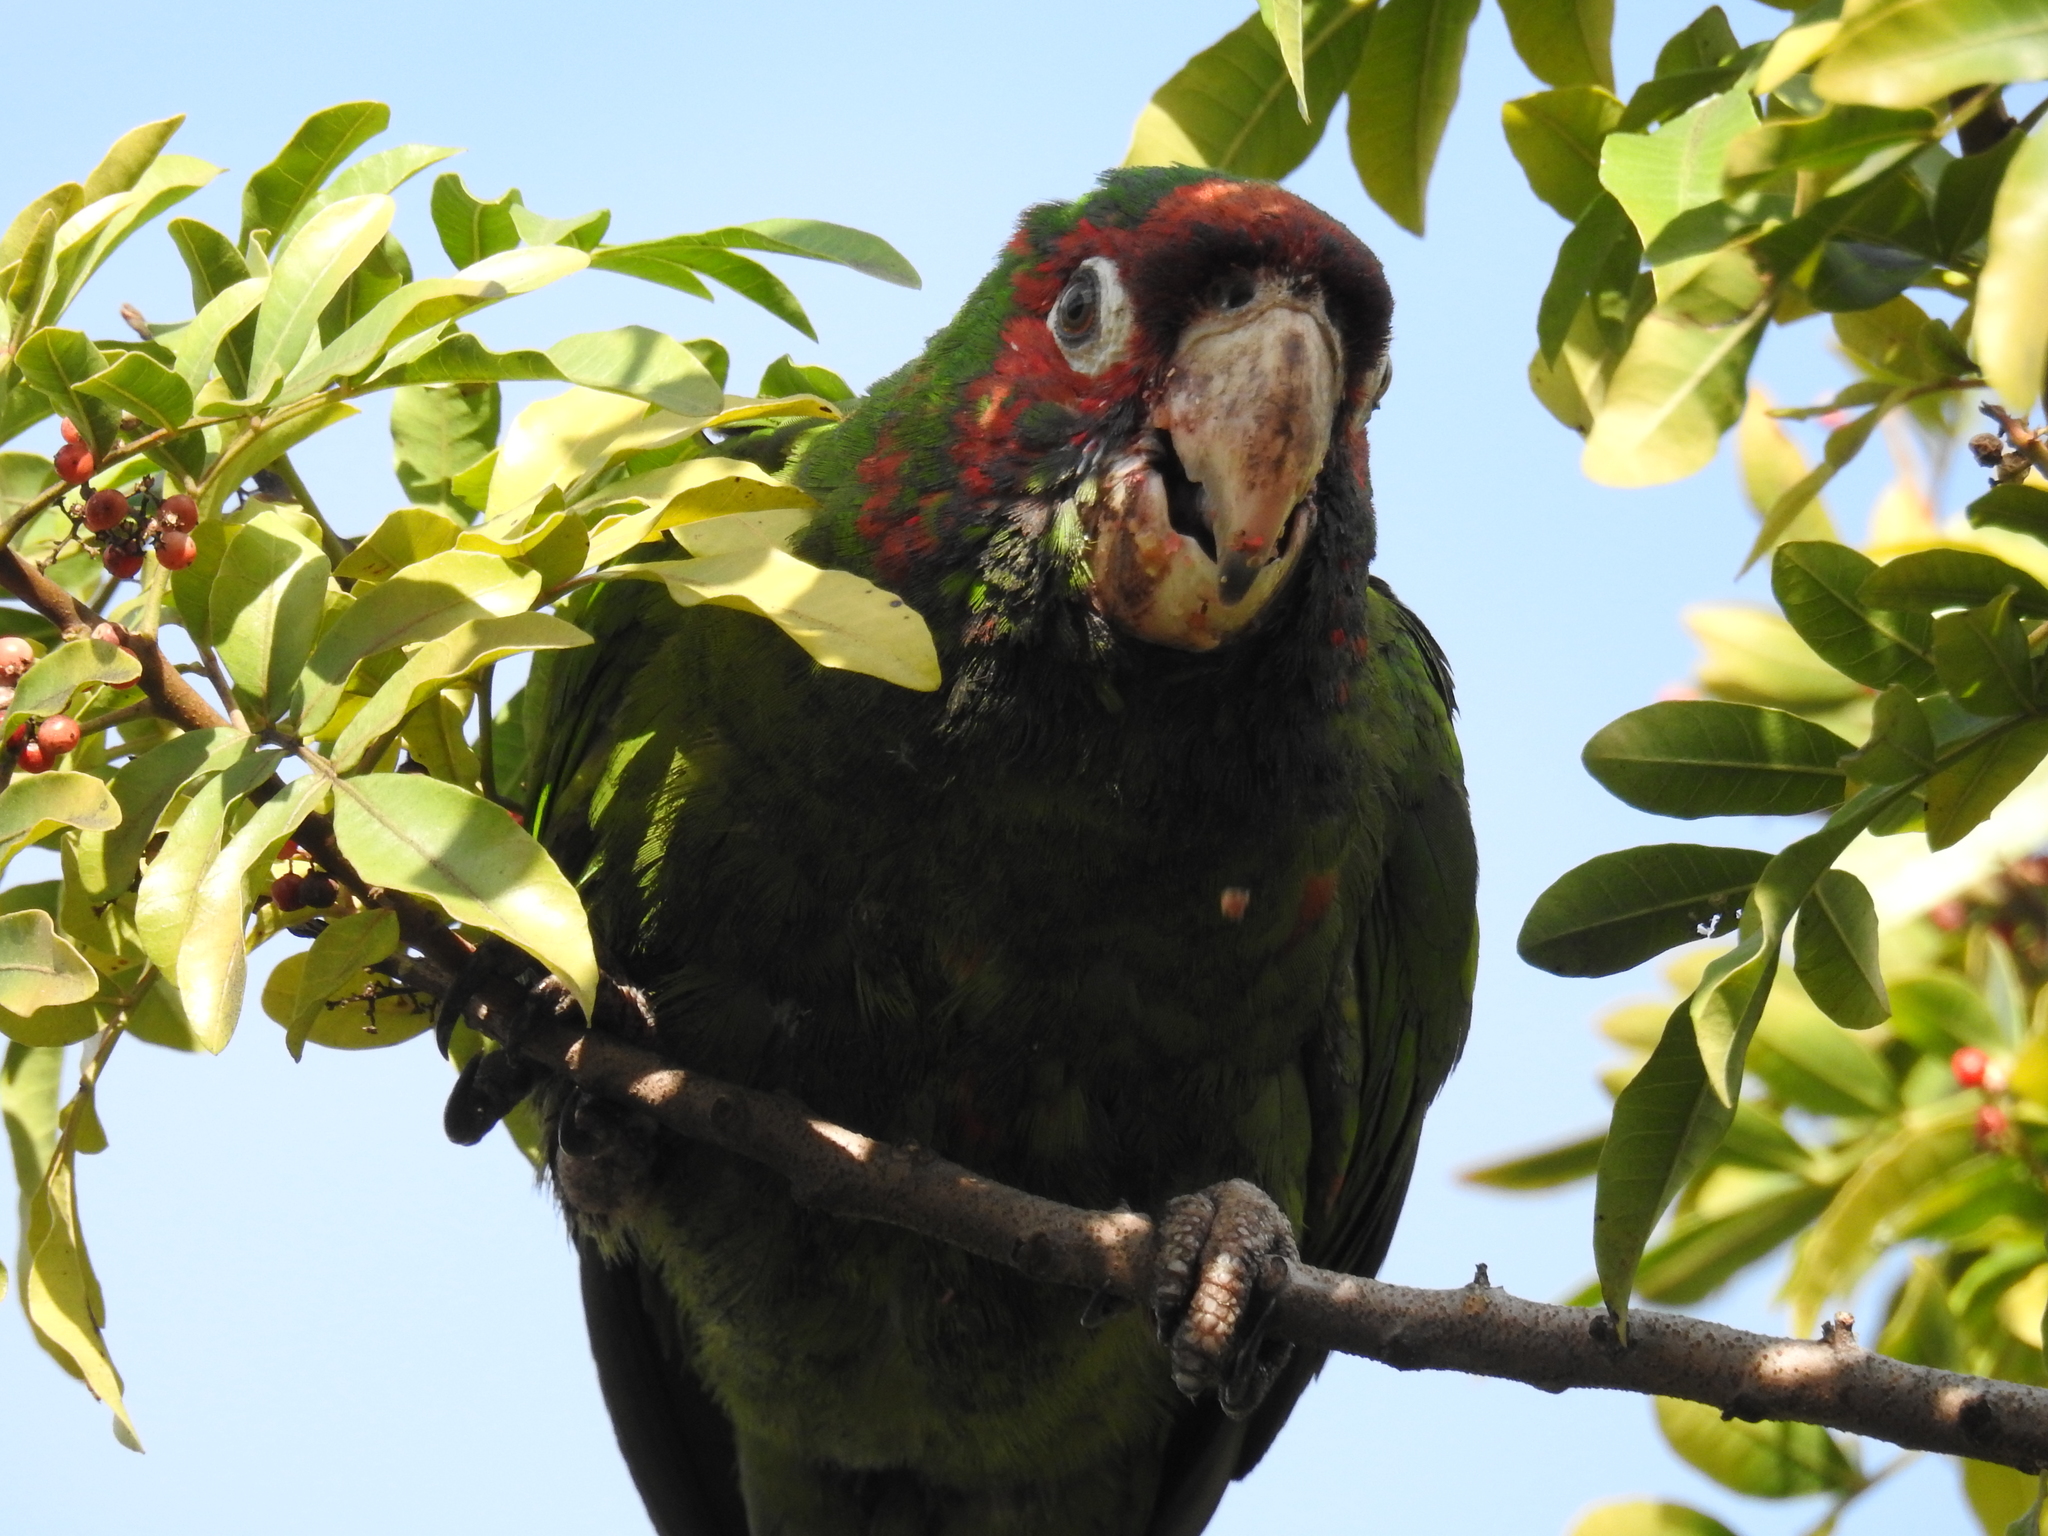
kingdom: Animalia
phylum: Chordata
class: Aves
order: Psittaciformes
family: Psittacidae
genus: Aratinga
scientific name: Aratinga mitrata
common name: Mitred parakeet
